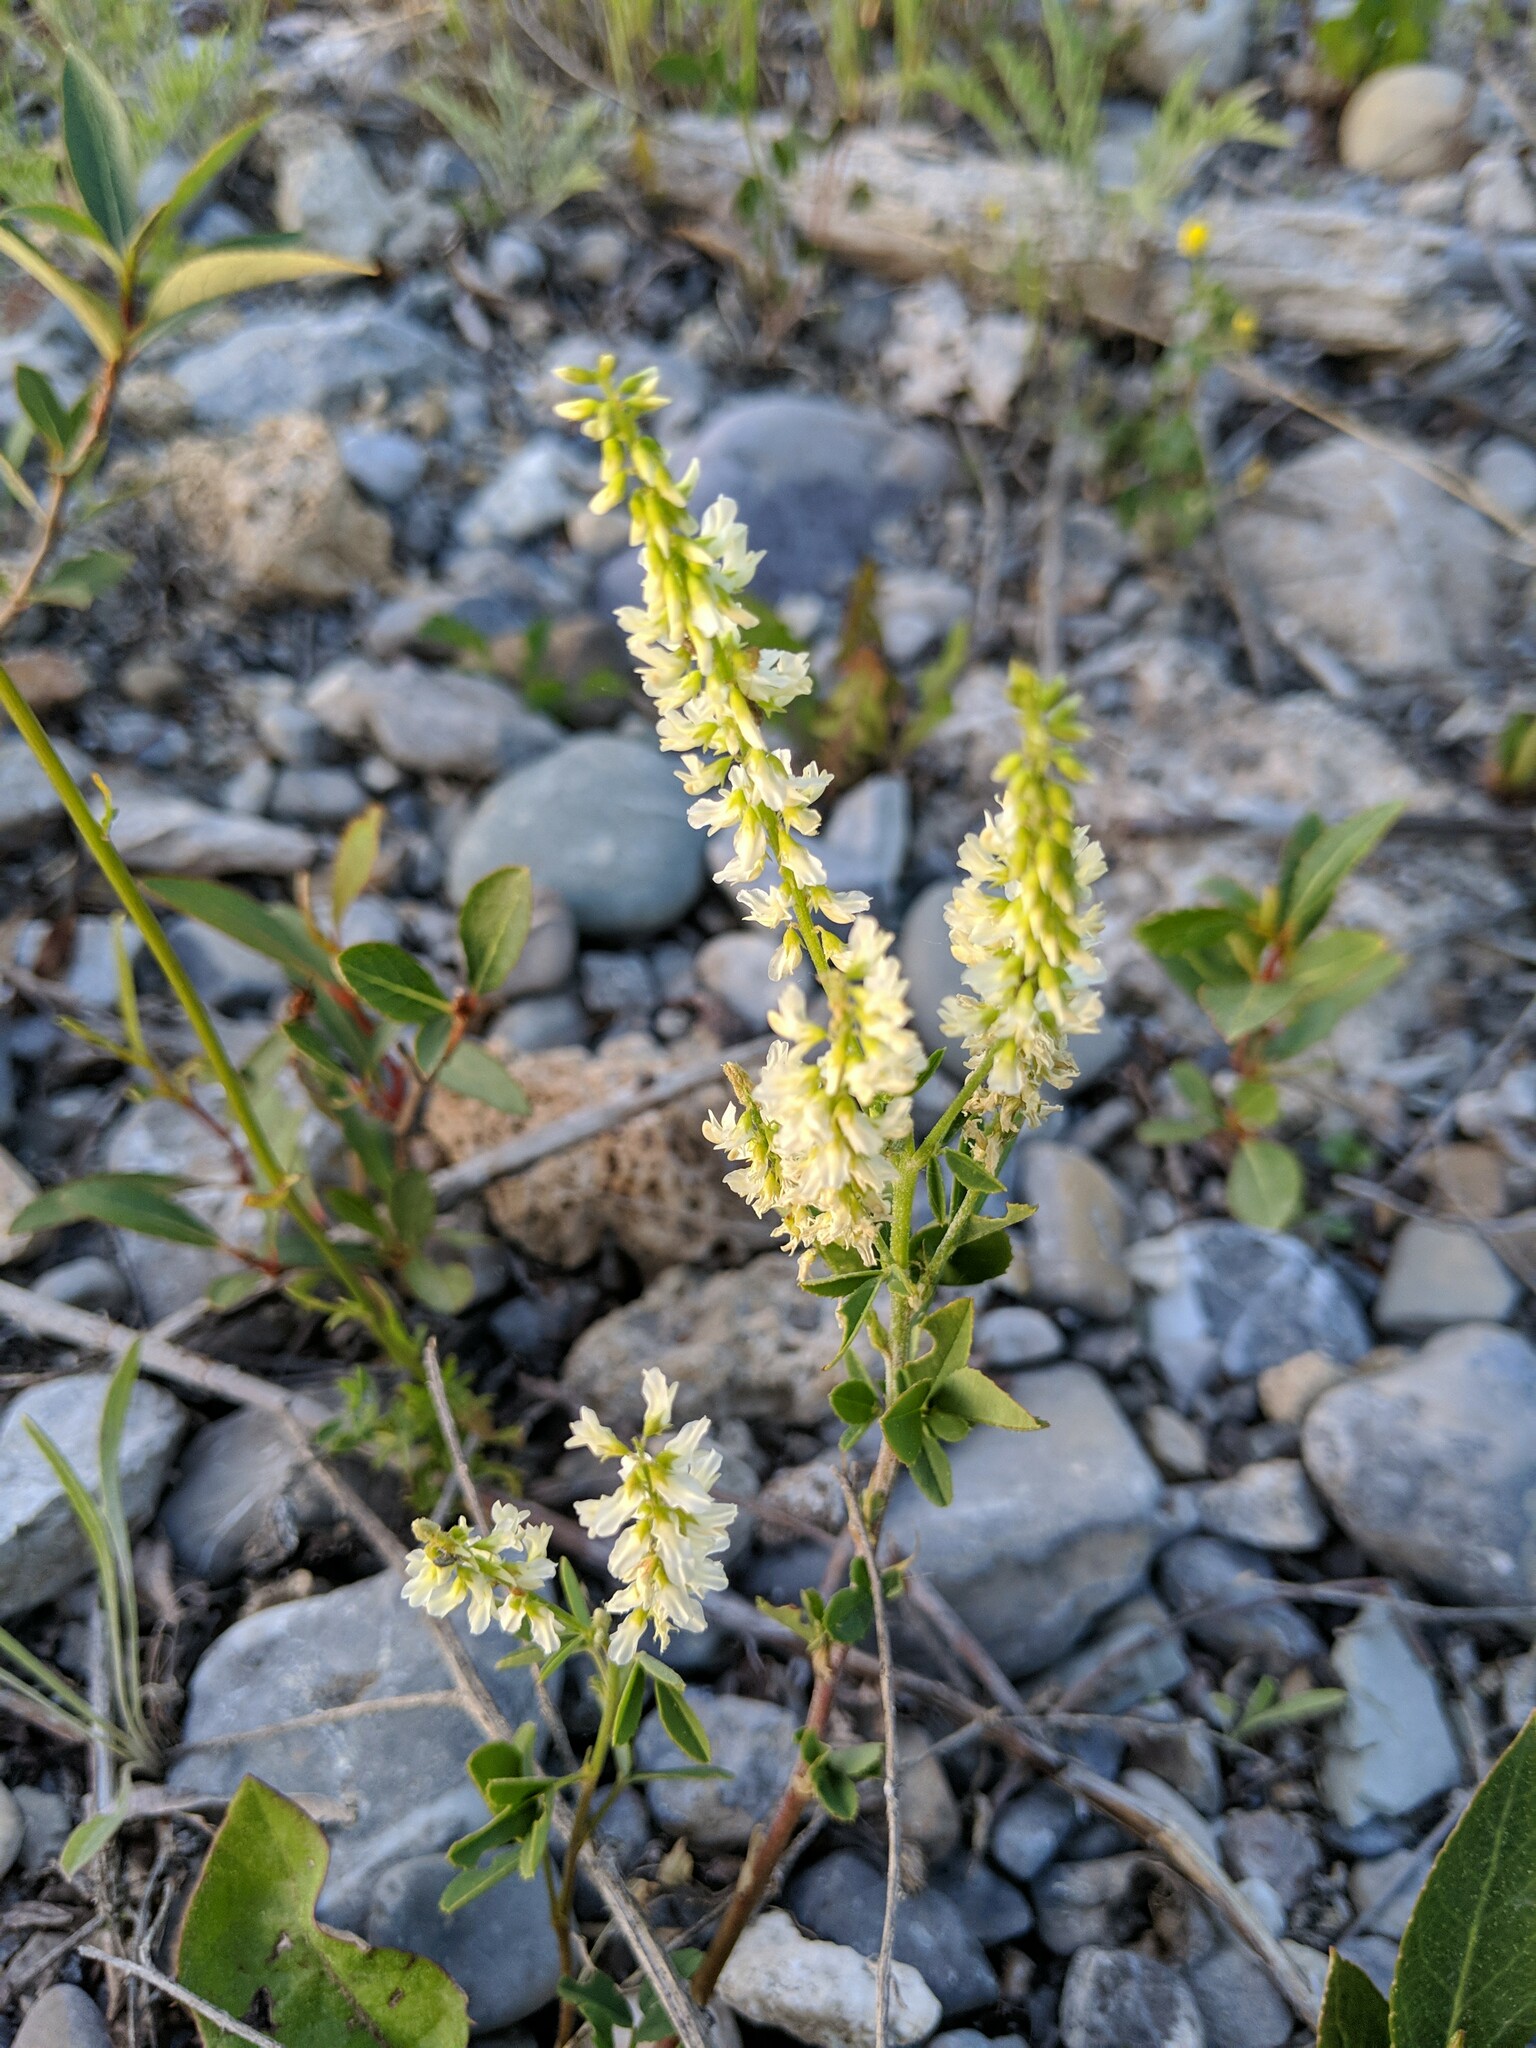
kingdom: Plantae
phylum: Tracheophyta
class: Magnoliopsida
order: Fabales
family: Fabaceae
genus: Melilotus
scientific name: Melilotus albus
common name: White melilot
